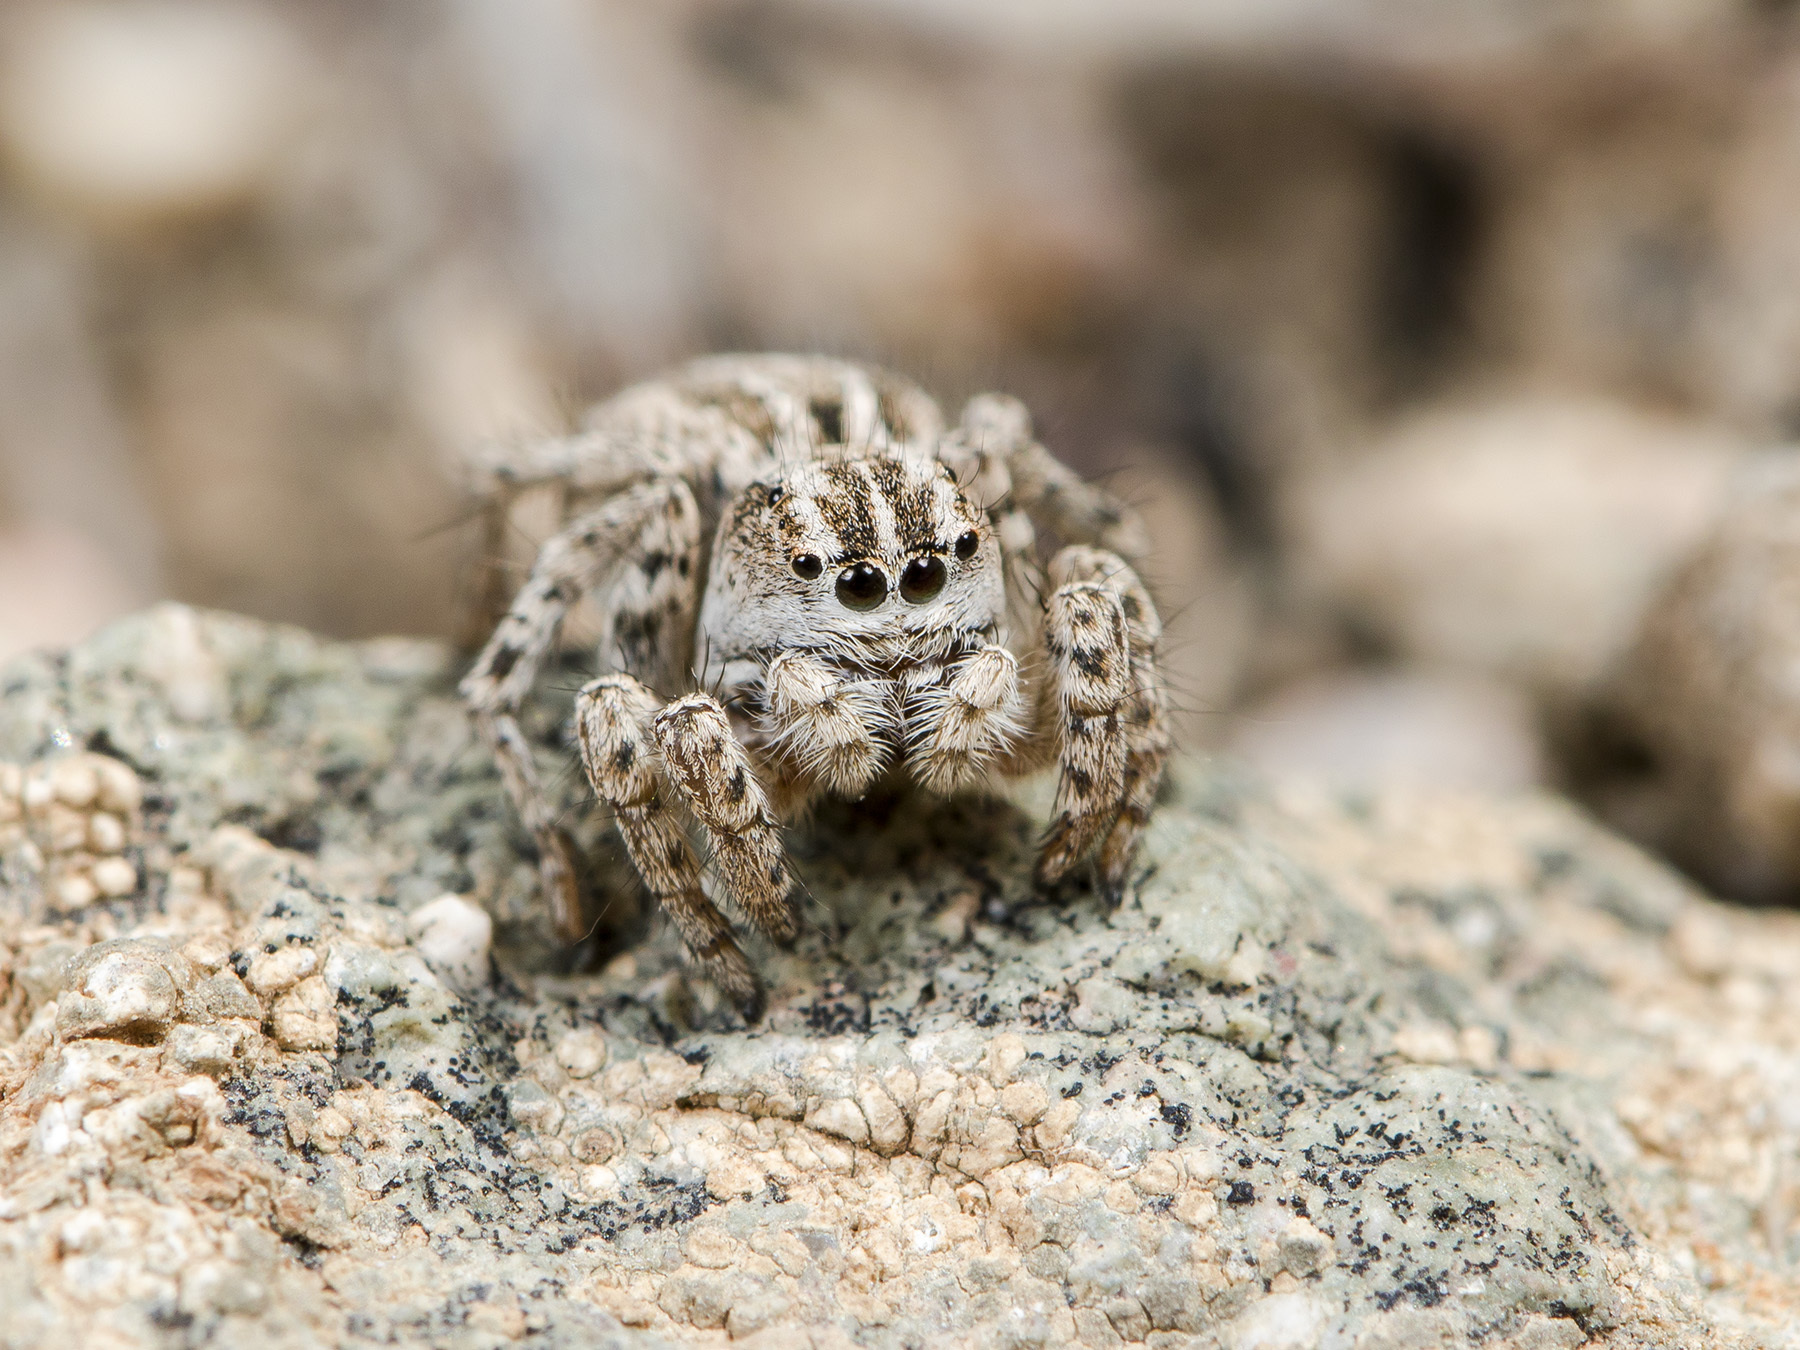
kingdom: Animalia
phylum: Arthropoda
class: Arachnida
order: Araneae
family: Salticidae
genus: Aelurillus
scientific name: Aelurillus m-nigrum
